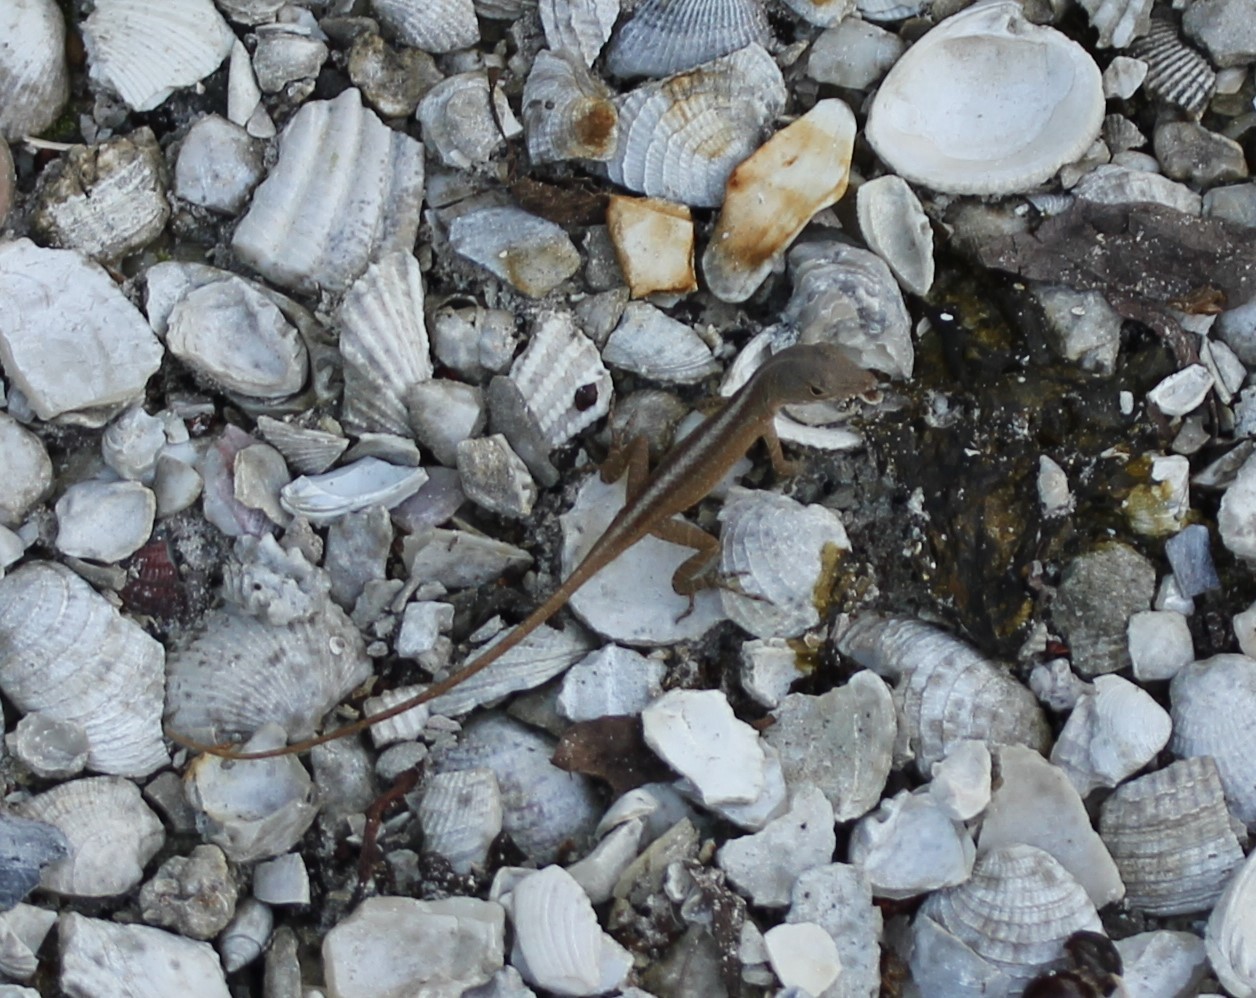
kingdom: Animalia
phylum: Chordata
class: Squamata
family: Dactyloidae
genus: Anolis
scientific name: Anolis sagrei
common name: Brown anole
